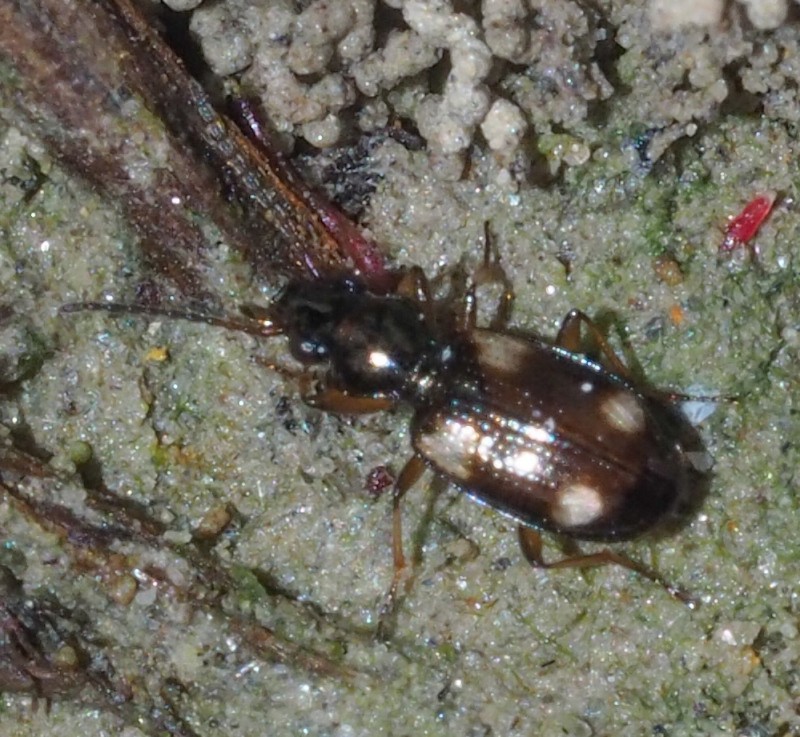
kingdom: Animalia
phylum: Arthropoda
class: Insecta
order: Coleoptera
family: Carabidae
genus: Bembidion
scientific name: Bembidion quadrimaculatum
